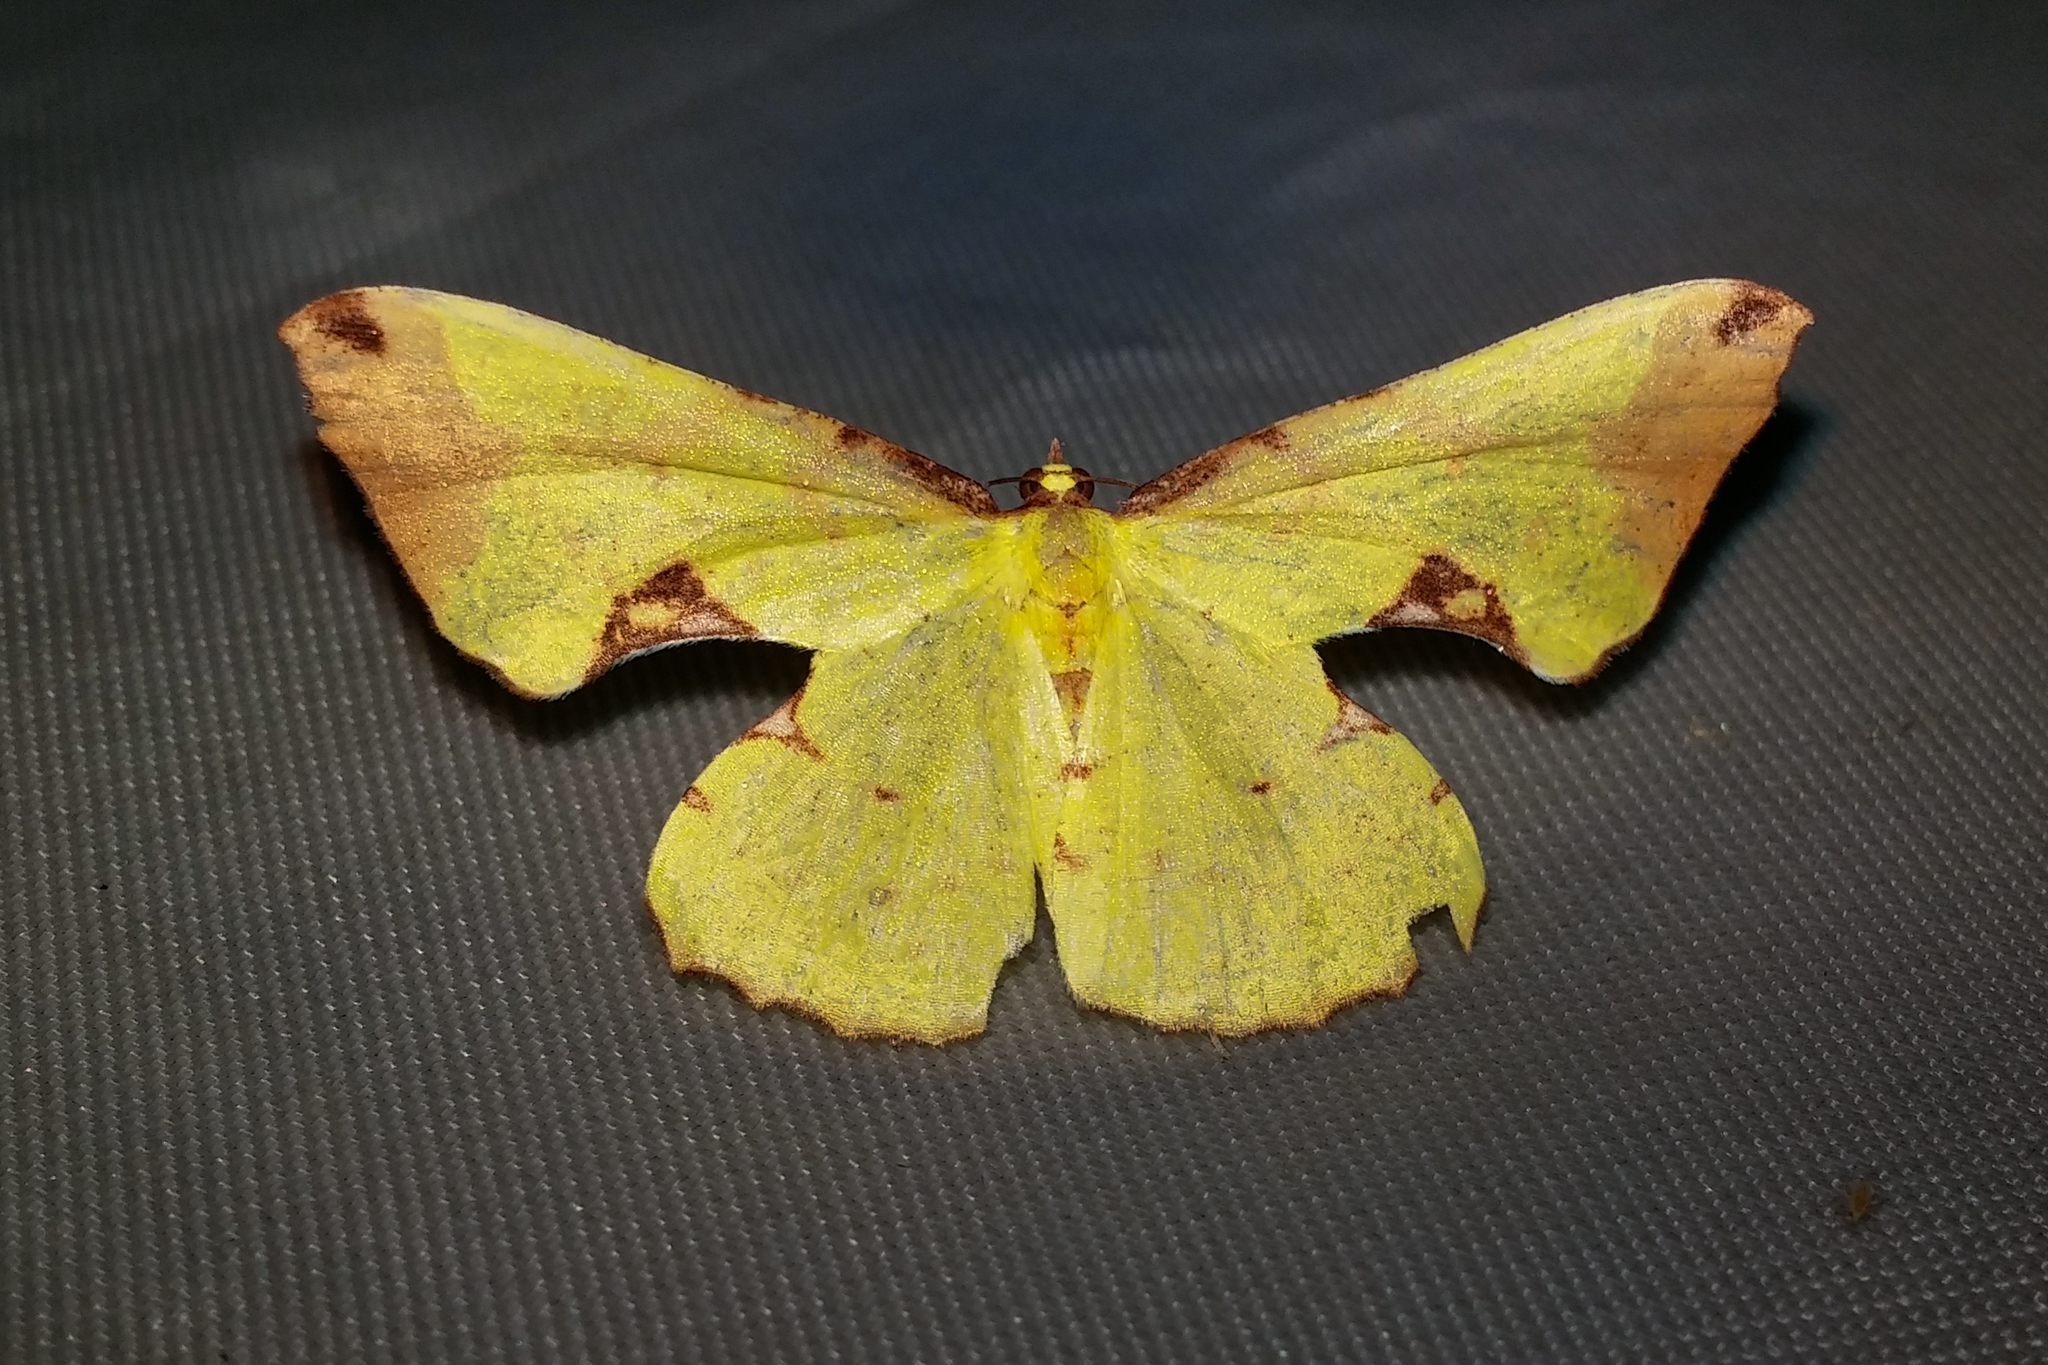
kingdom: Animalia
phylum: Arthropoda
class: Insecta
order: Lepidoptera
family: Geometridae
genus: Corymica
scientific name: Corymica pryeri
